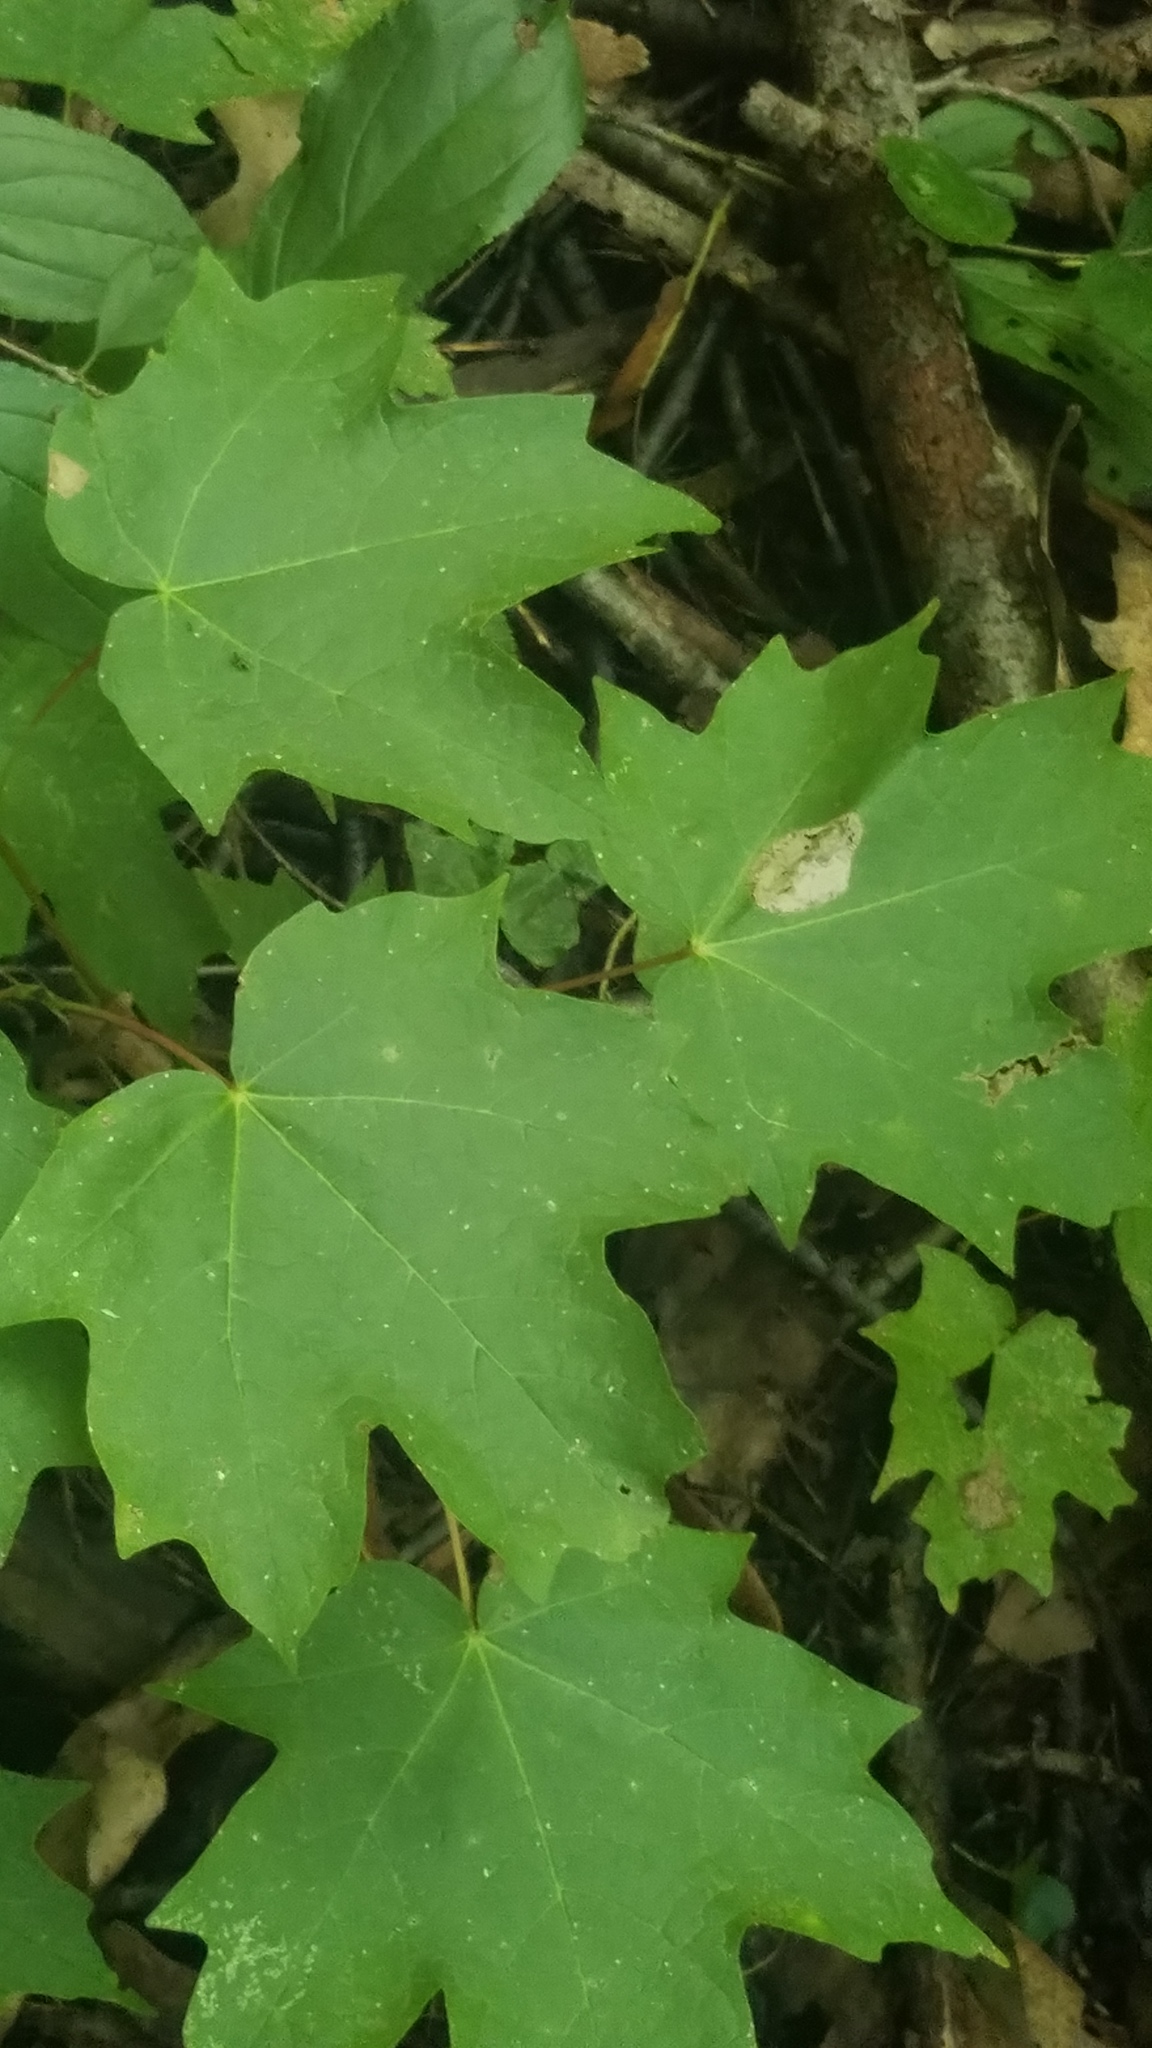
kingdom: Plantae
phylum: Tracheophyta
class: Magnoliopsida
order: Sapindales
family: Sapindaceae
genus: Acer
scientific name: Acer saccharum
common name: Sugar maple
